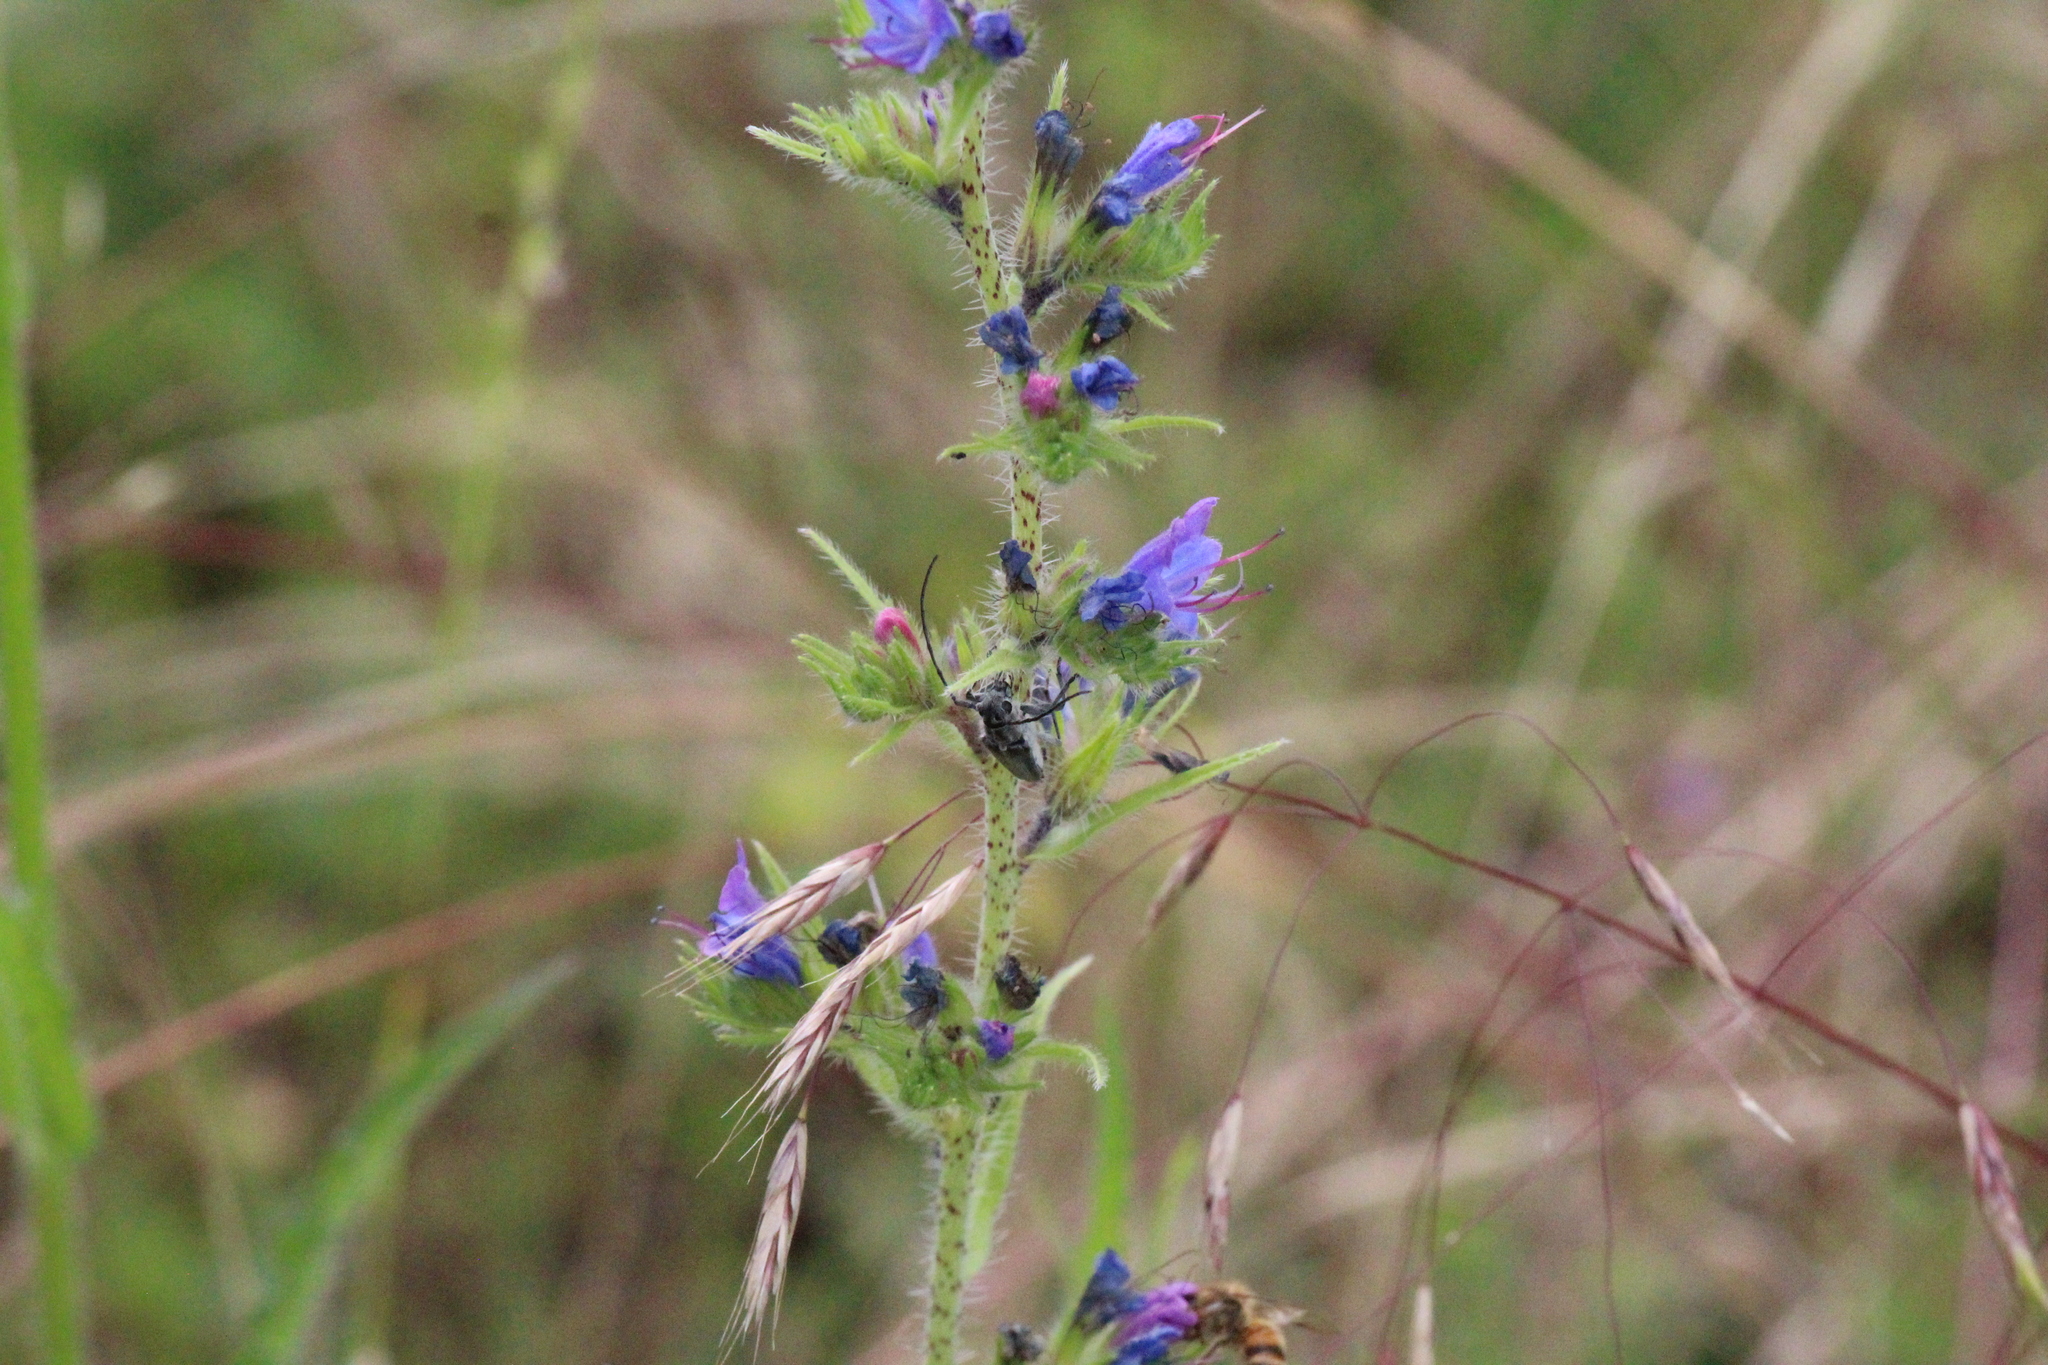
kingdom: Animalia
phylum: Arthropoda
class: Insecta
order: Coleoptera
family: Cerambycidae
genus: Phytoecia
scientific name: Phytoecia coerulescens
